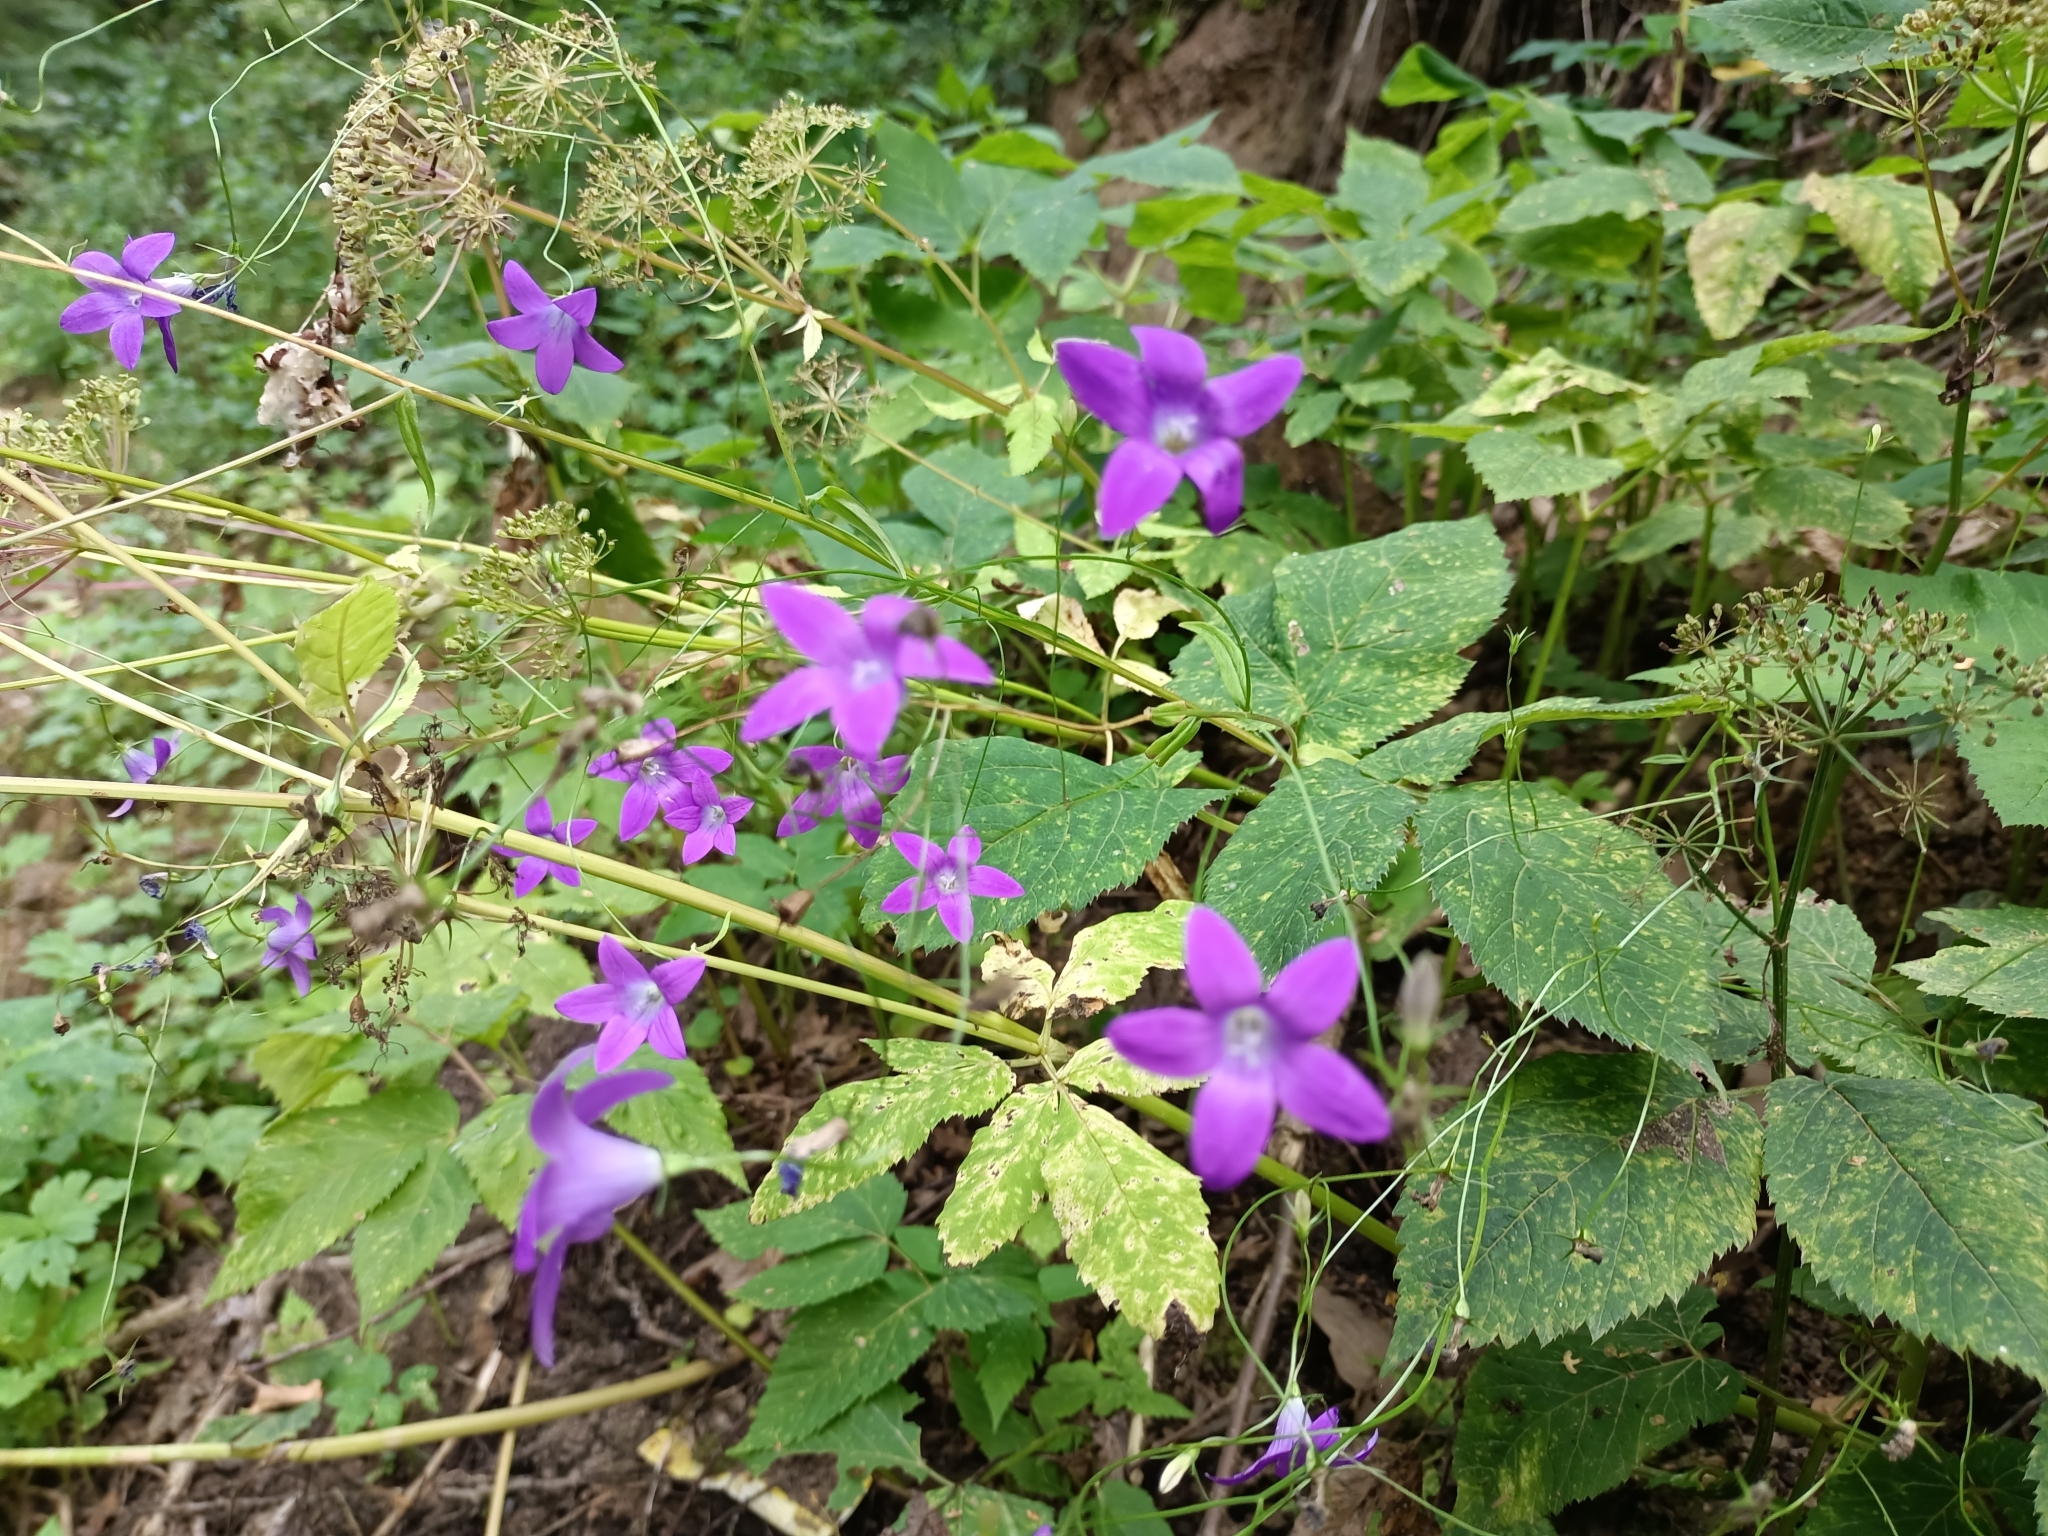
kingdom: Plantae
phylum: Tracheophyta
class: Magnoliopsida
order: Asterales
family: Campanulaceae
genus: Campanula
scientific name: Campanula patula
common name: Spreading bellflower
